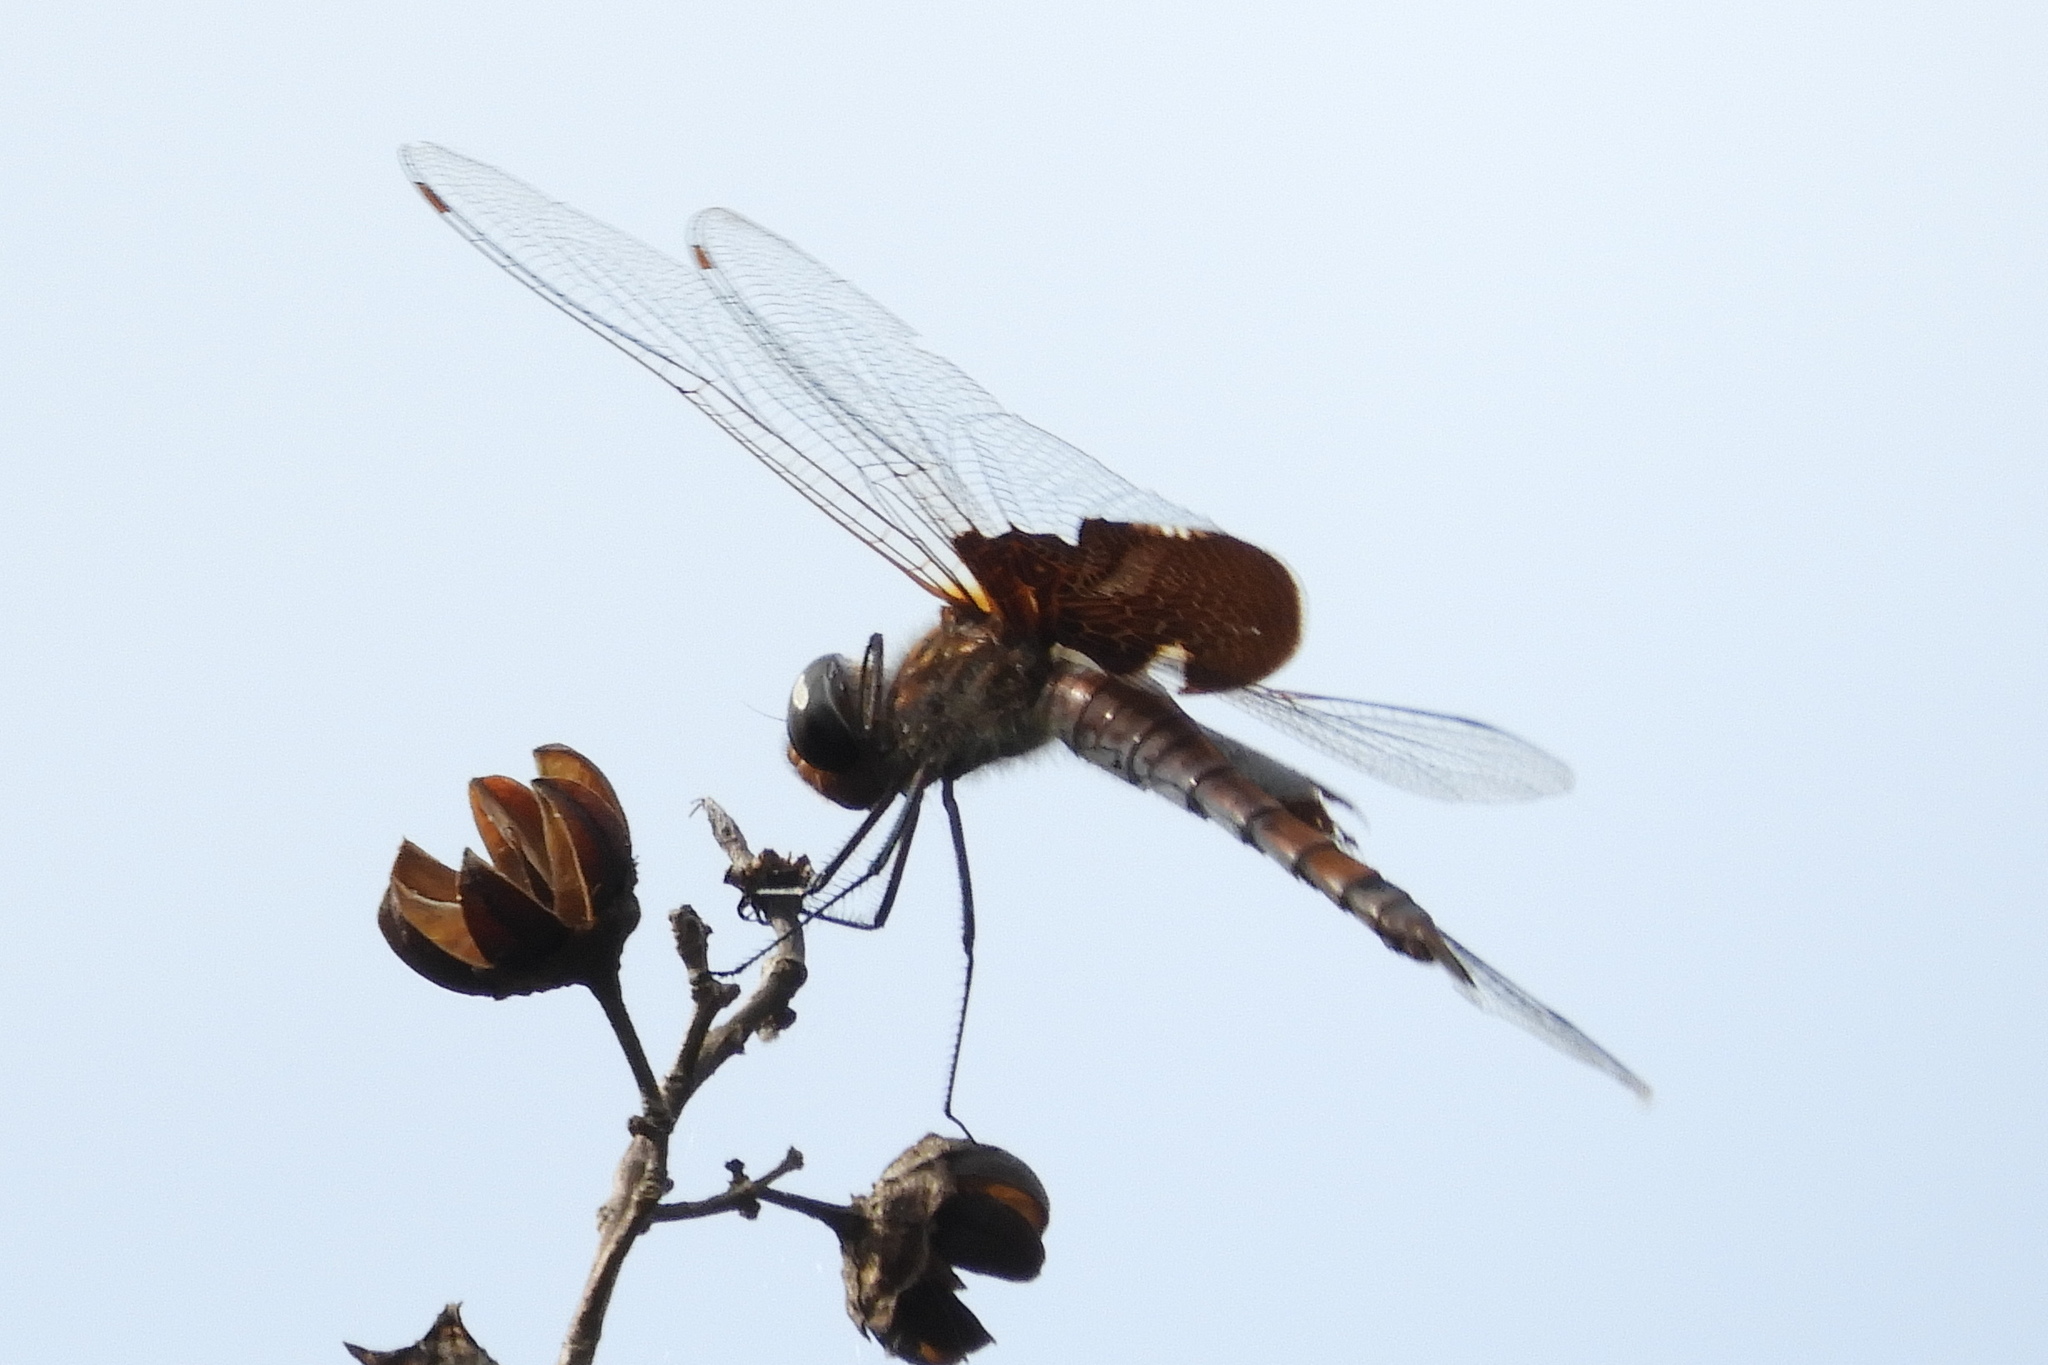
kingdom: Animalia
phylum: Arthropoda
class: Insecta
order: Odonata
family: Libellulidae
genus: Tramea
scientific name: Tramea carolina
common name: Carolina saddlebags
